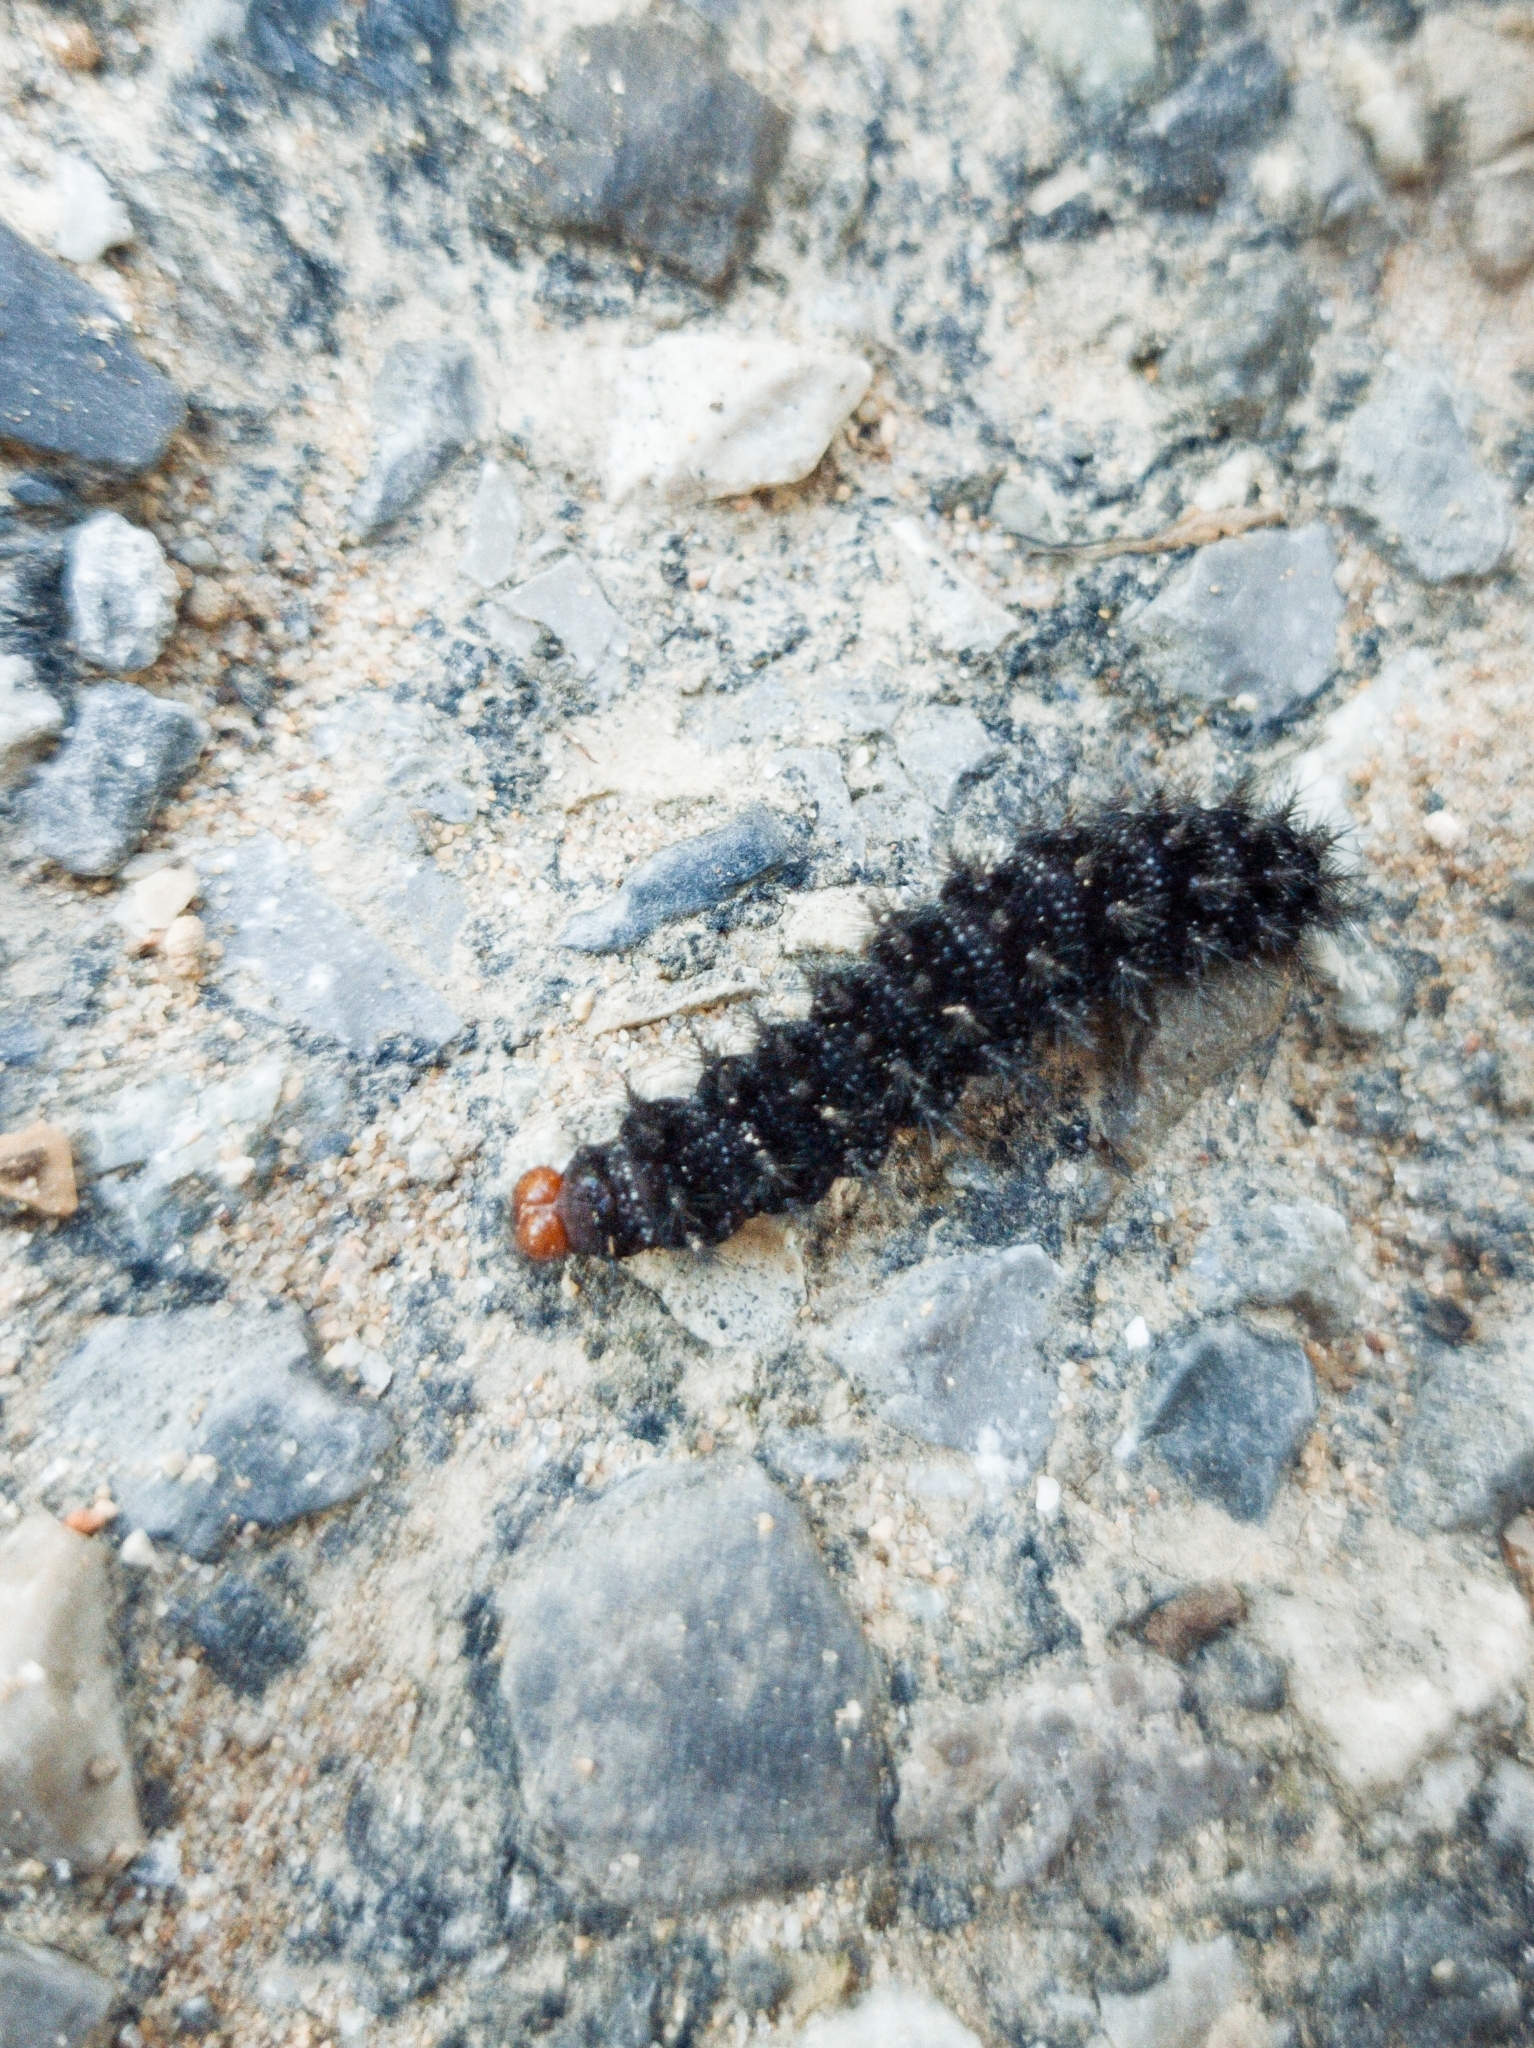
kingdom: Animalia
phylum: Arthropoda
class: Insecta
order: Lepidoptera
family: Nymphalidae
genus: Melitaea
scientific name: Melitaea cinxia
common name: Glanville fritillary
